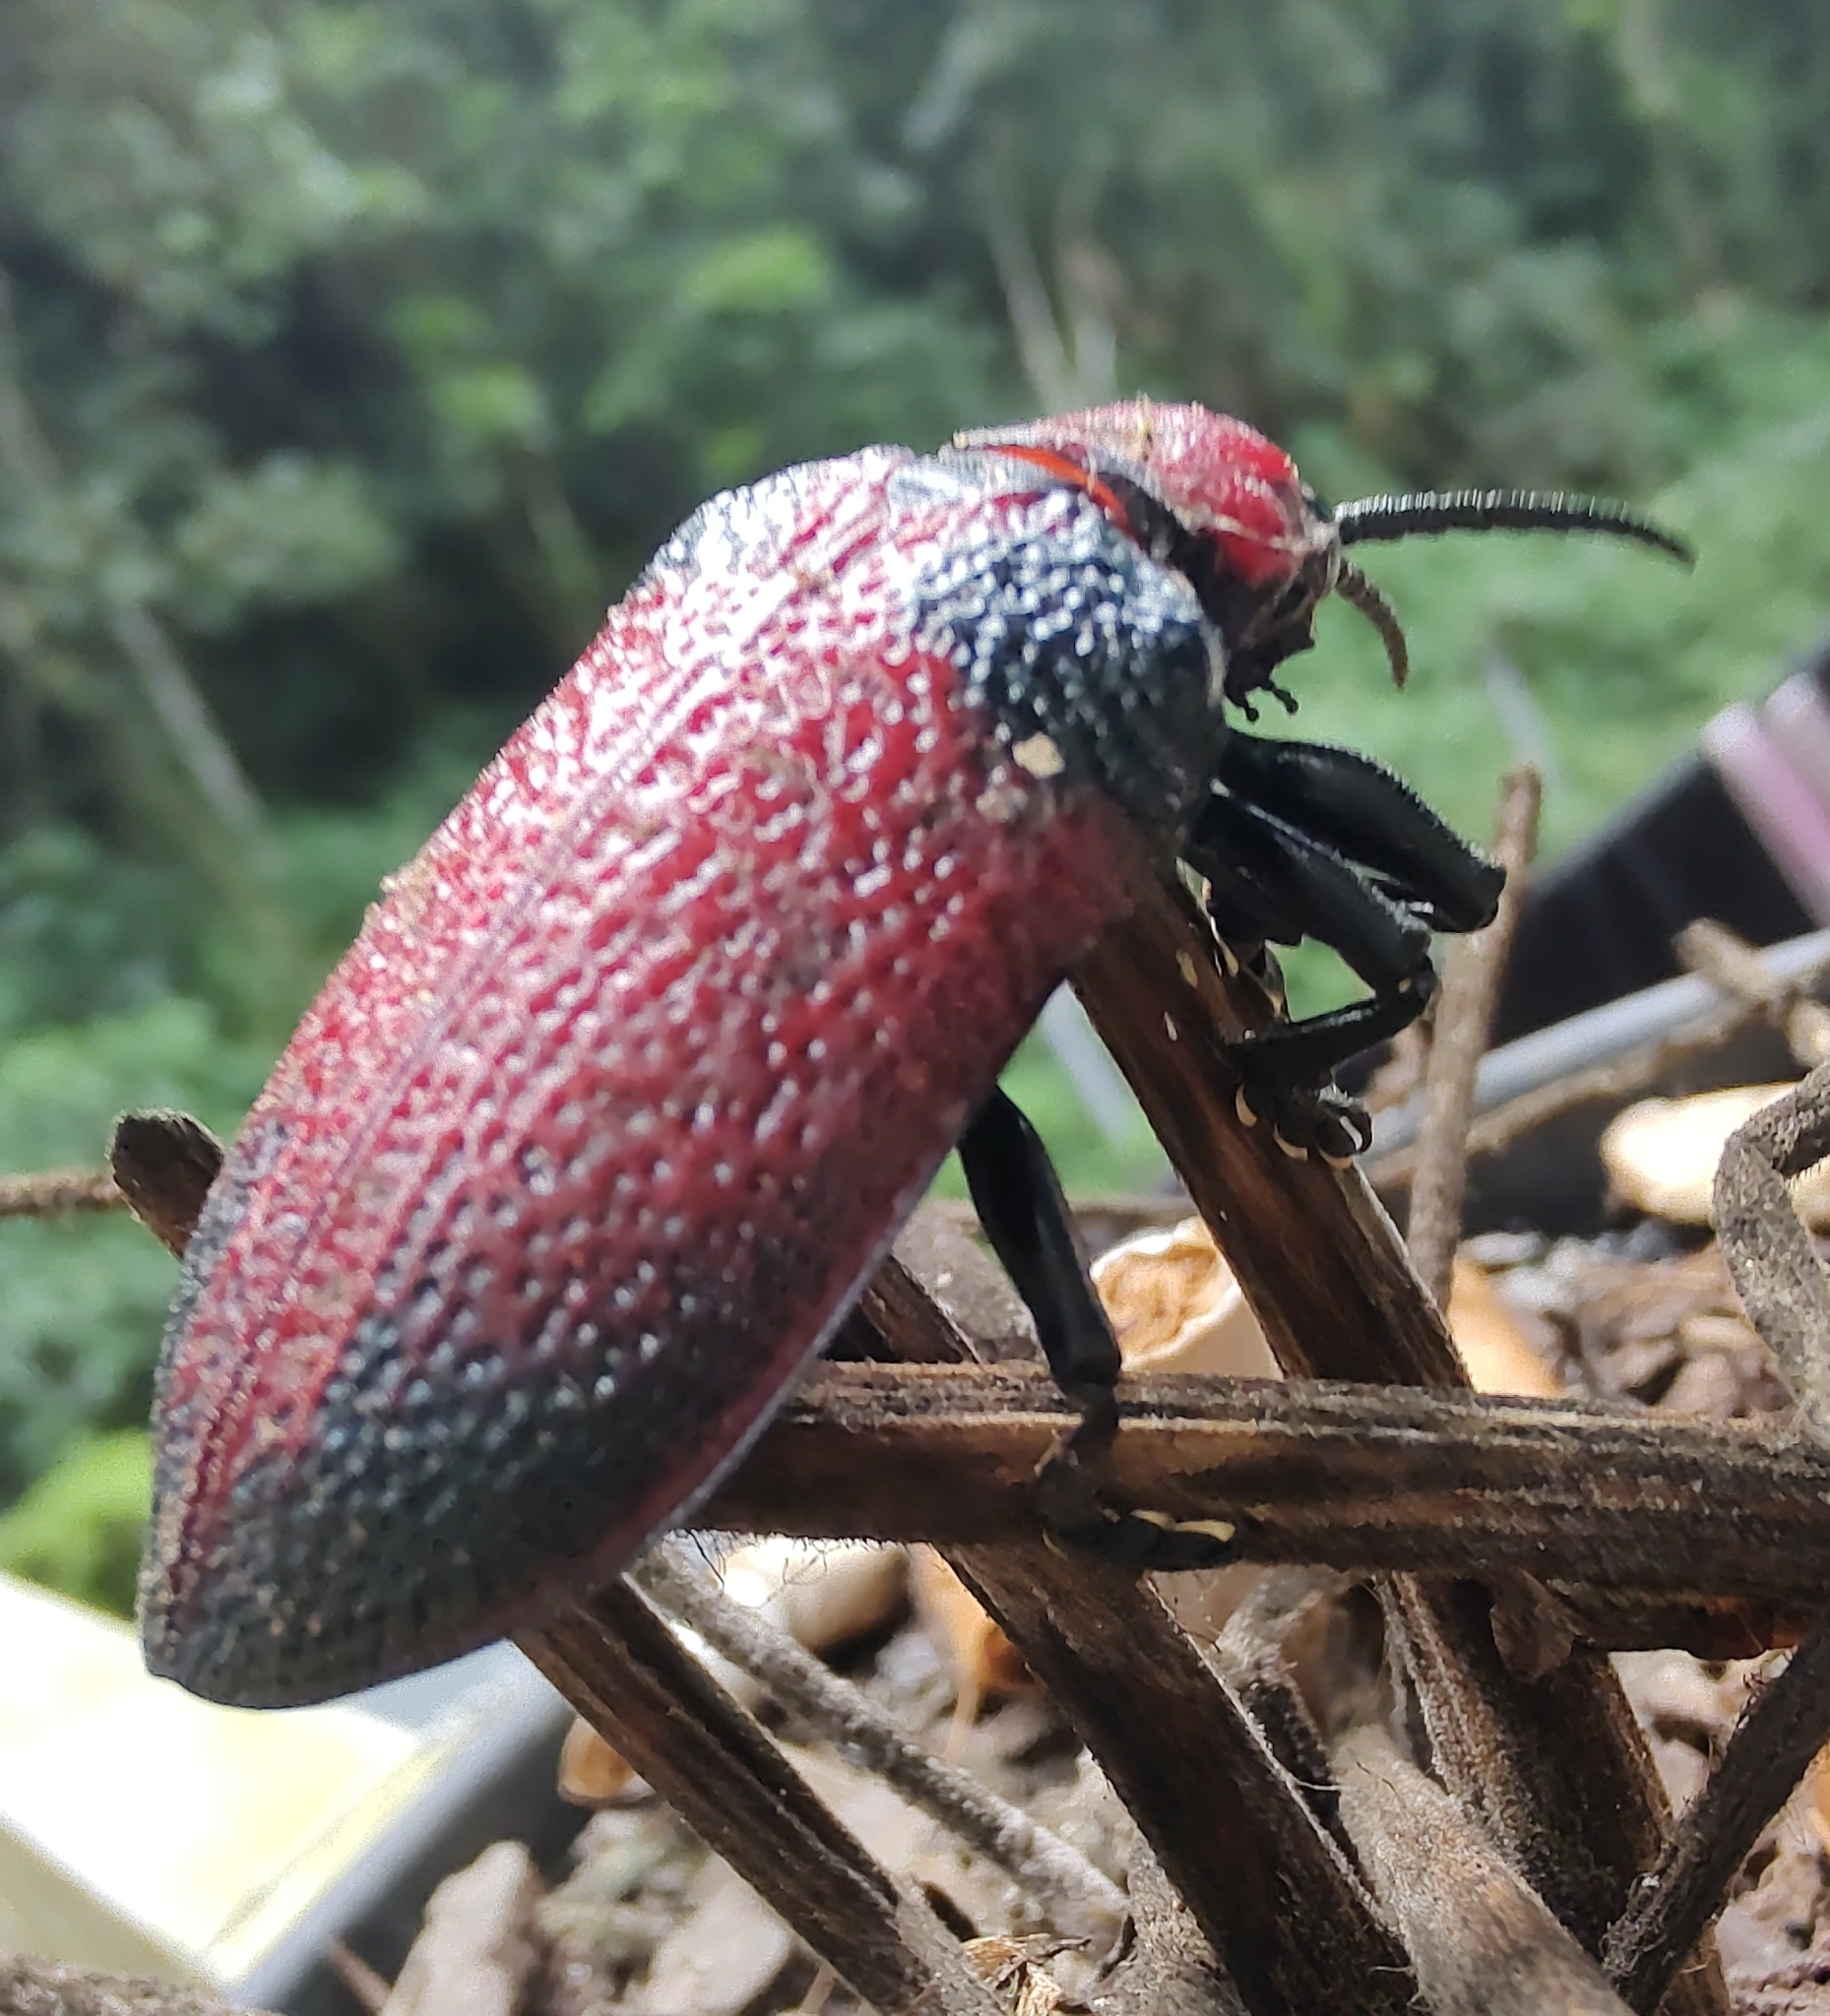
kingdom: Animalia
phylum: Arthropoda
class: Insecta
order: Coleoptera
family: Chrysomelidae
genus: Coraliomela
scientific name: Coraliomela aeneoplagiata
